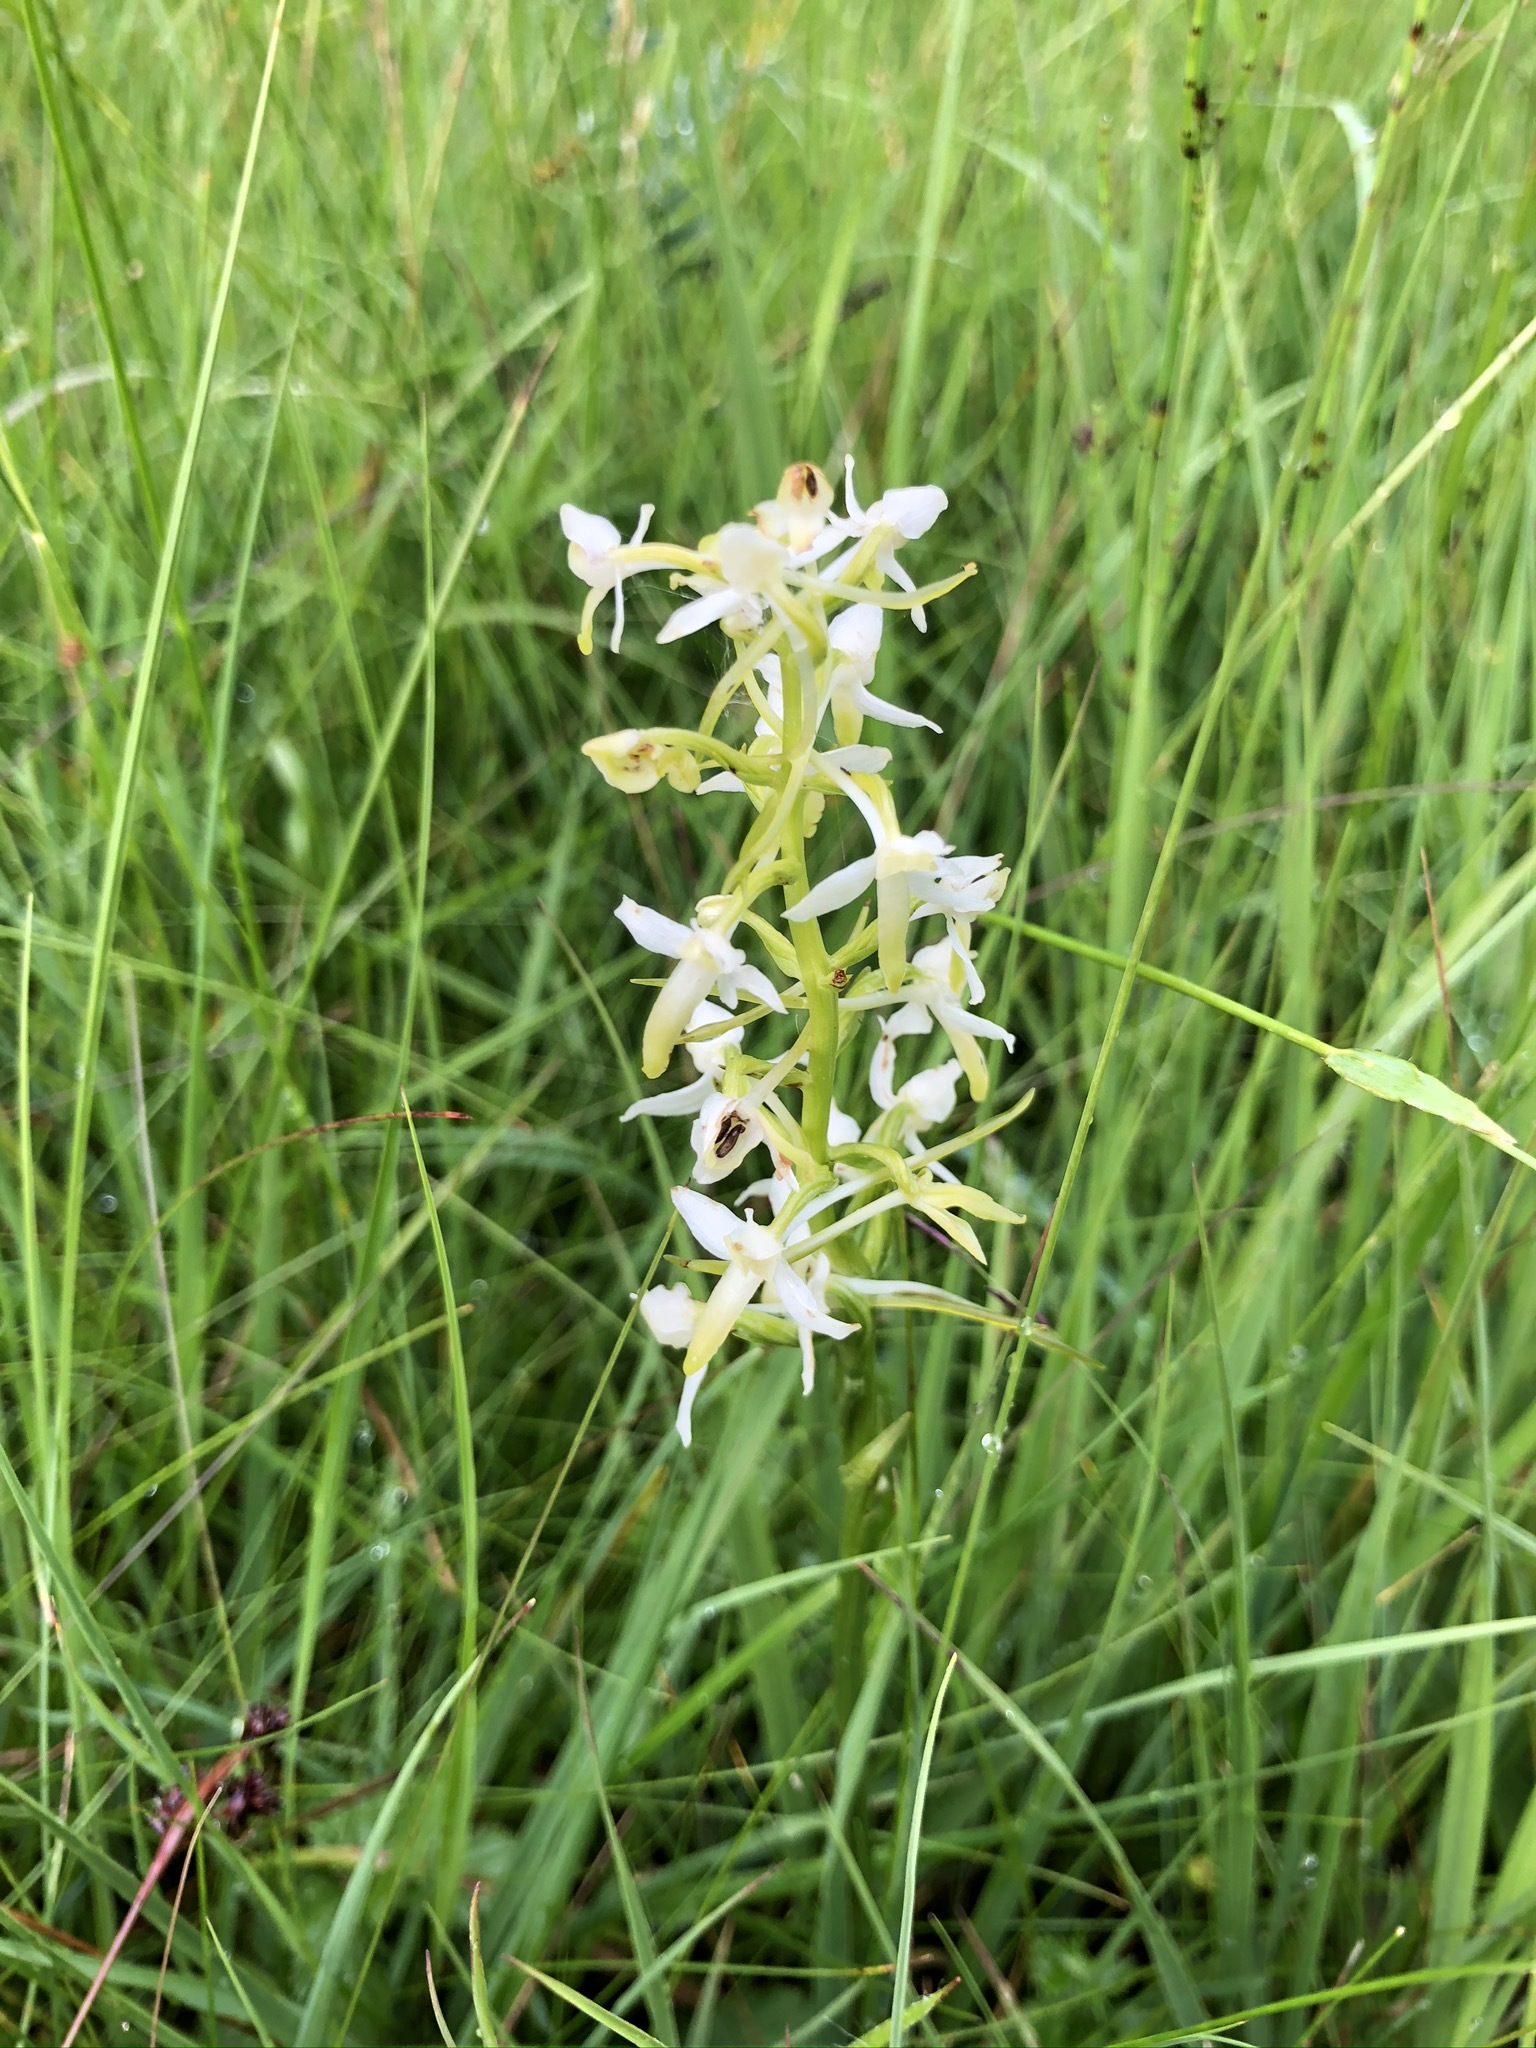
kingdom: Plantae
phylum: Tracheophyta
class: Liliopsida
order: Asparagales
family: Orchidaceae
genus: Platanthera
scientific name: Platanthera bifolia
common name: Lesser butterfly-orchid
